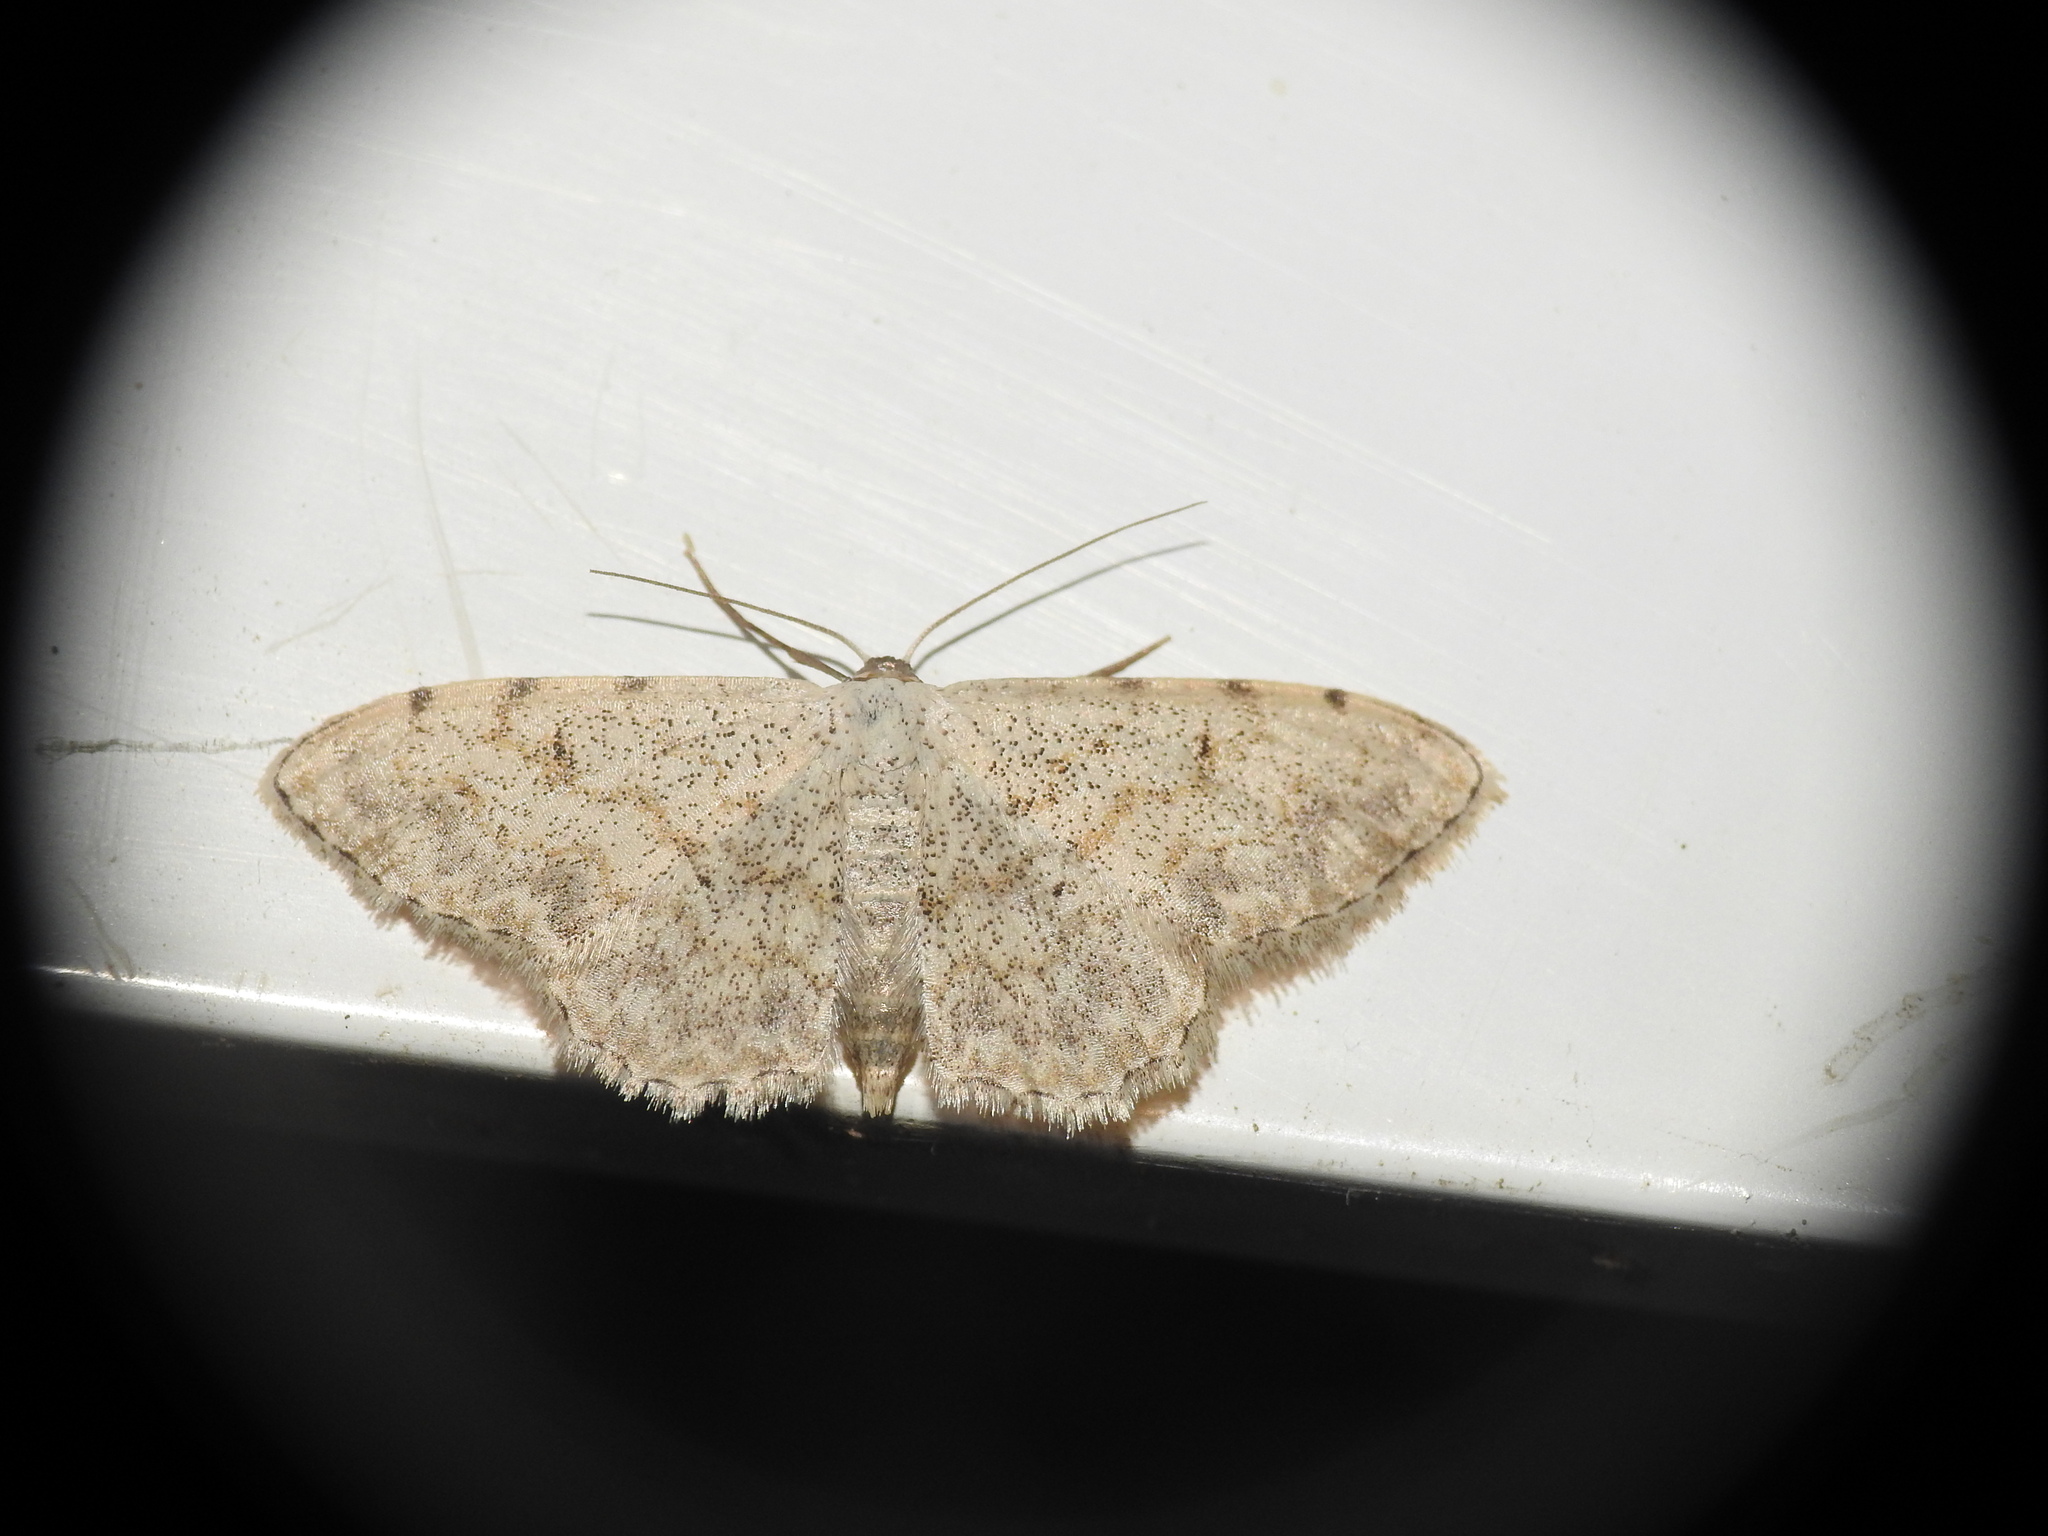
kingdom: Animalia
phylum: Arthropoda
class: Insecta
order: Lepidoptera
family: Geometridae
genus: Scopula
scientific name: Scopula submutata
